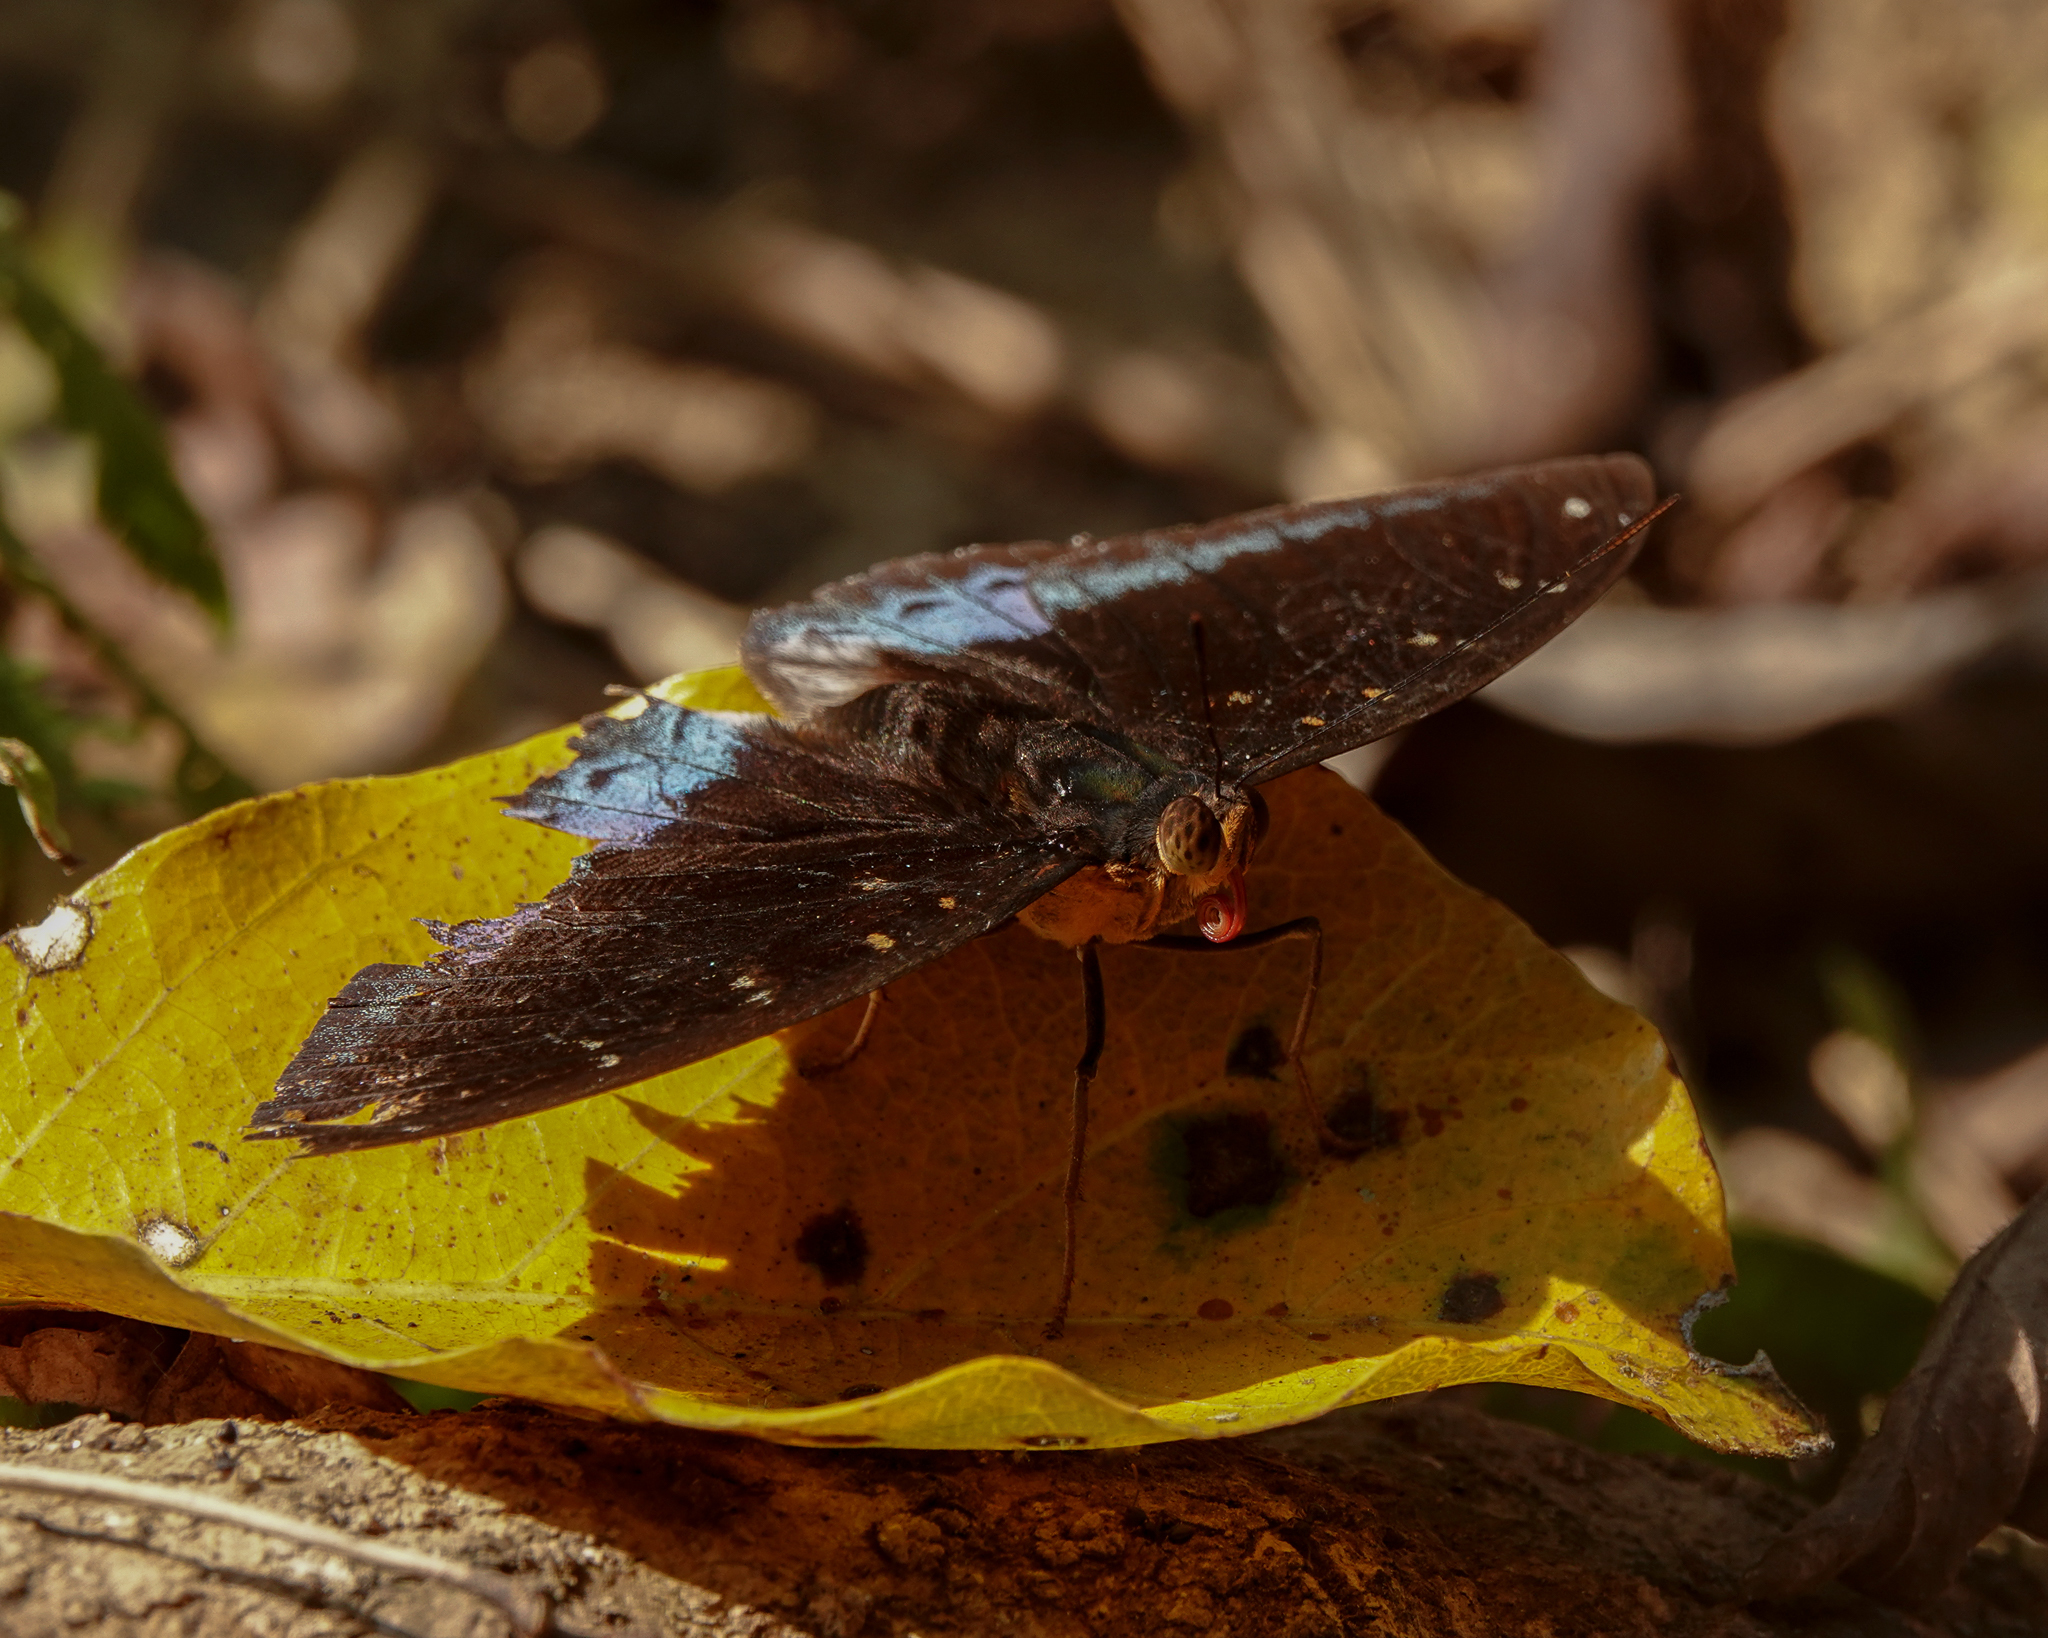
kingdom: Animalia
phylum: Arthropoda
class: Insecta
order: Lepidoptera
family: Nymphalidae
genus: Lexias
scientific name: Lexias dirtea
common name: Black-tipped archduke
